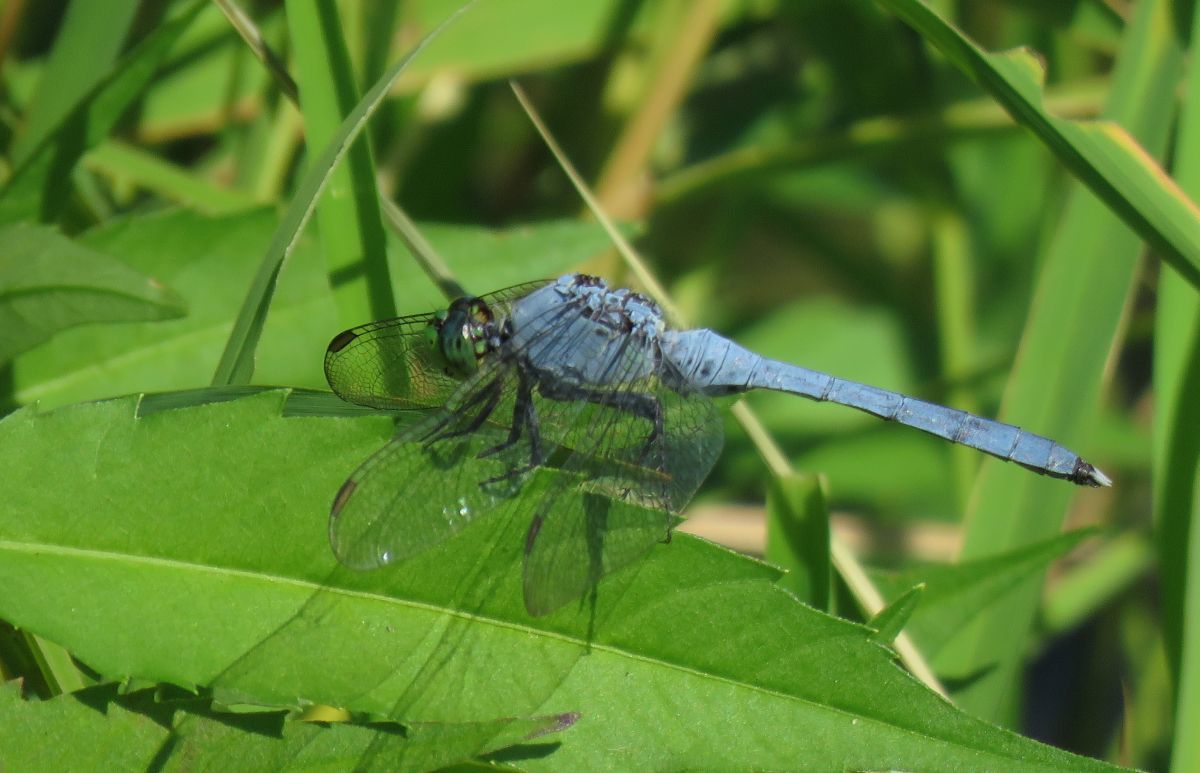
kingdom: Animalia
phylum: Arthropoda
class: Insecta
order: Odonata
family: Libellulidae
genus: Erythemis
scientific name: Erythemis simplicicollis
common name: Eastern pondhawk
